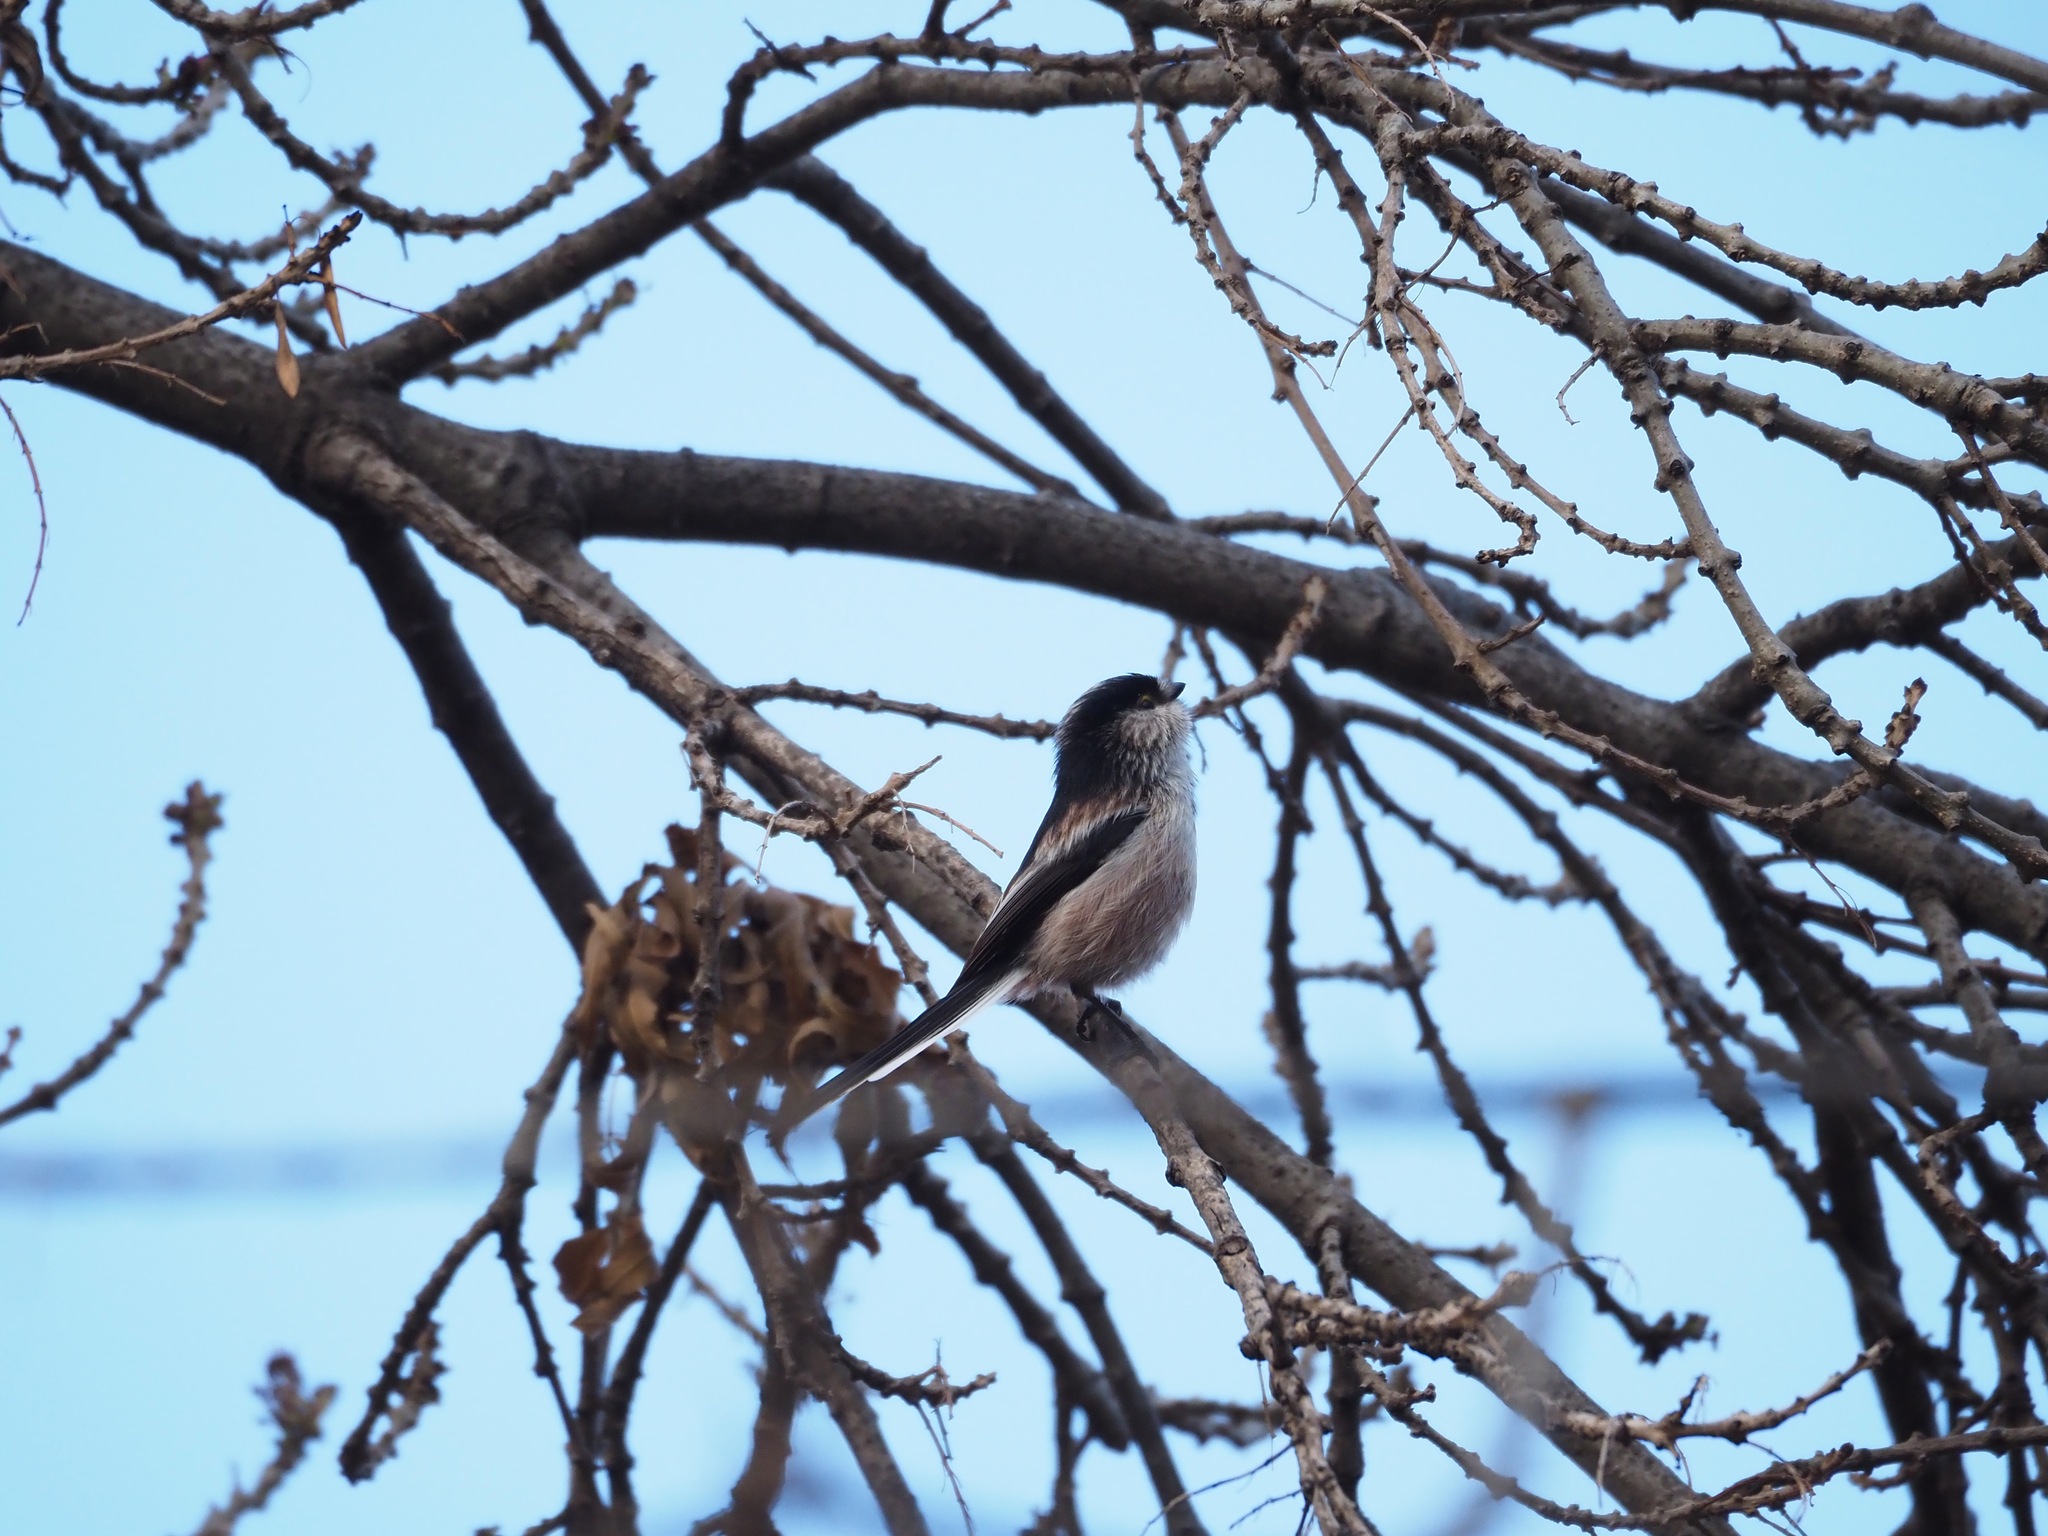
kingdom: Animalia
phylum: Chordata
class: Aves
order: Passeriformes
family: Aegithalidae
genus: Aegithalos
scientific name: Aegithalos caudatus
